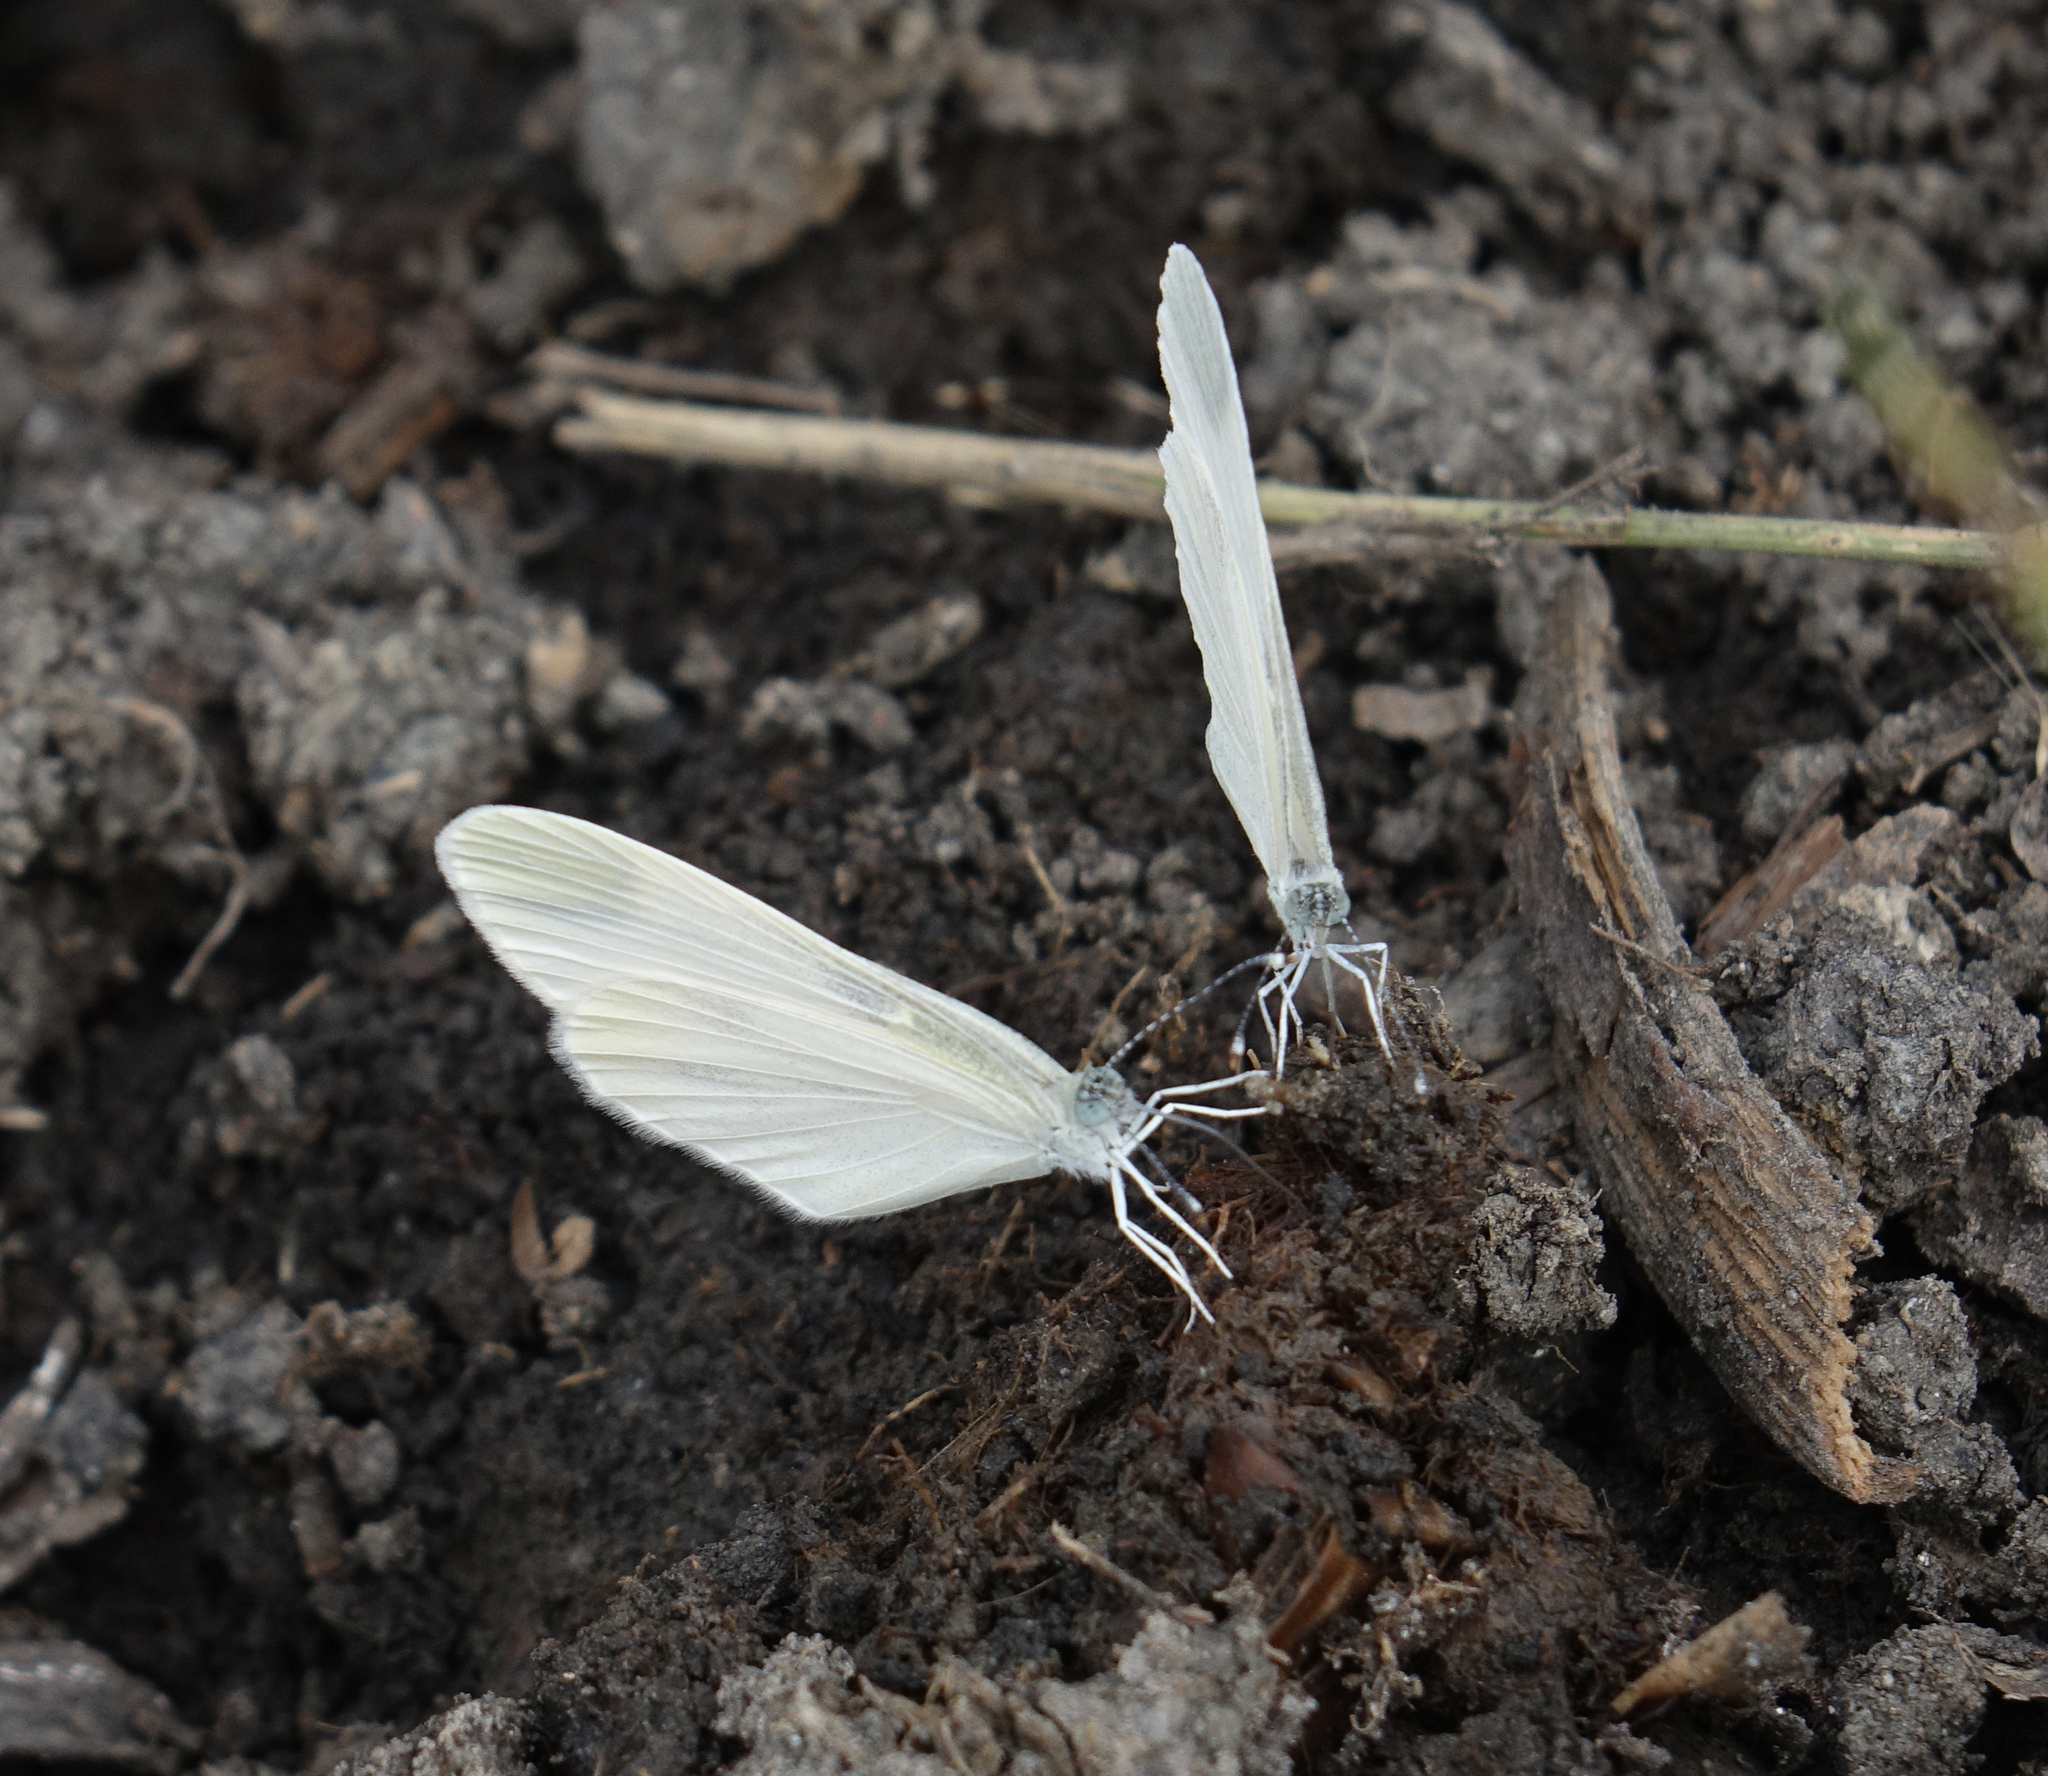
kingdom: Animalia
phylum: Arthropoda
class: Insecta
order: Lepidoptera
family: Pieridae
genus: Leptidea
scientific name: Leptidea
